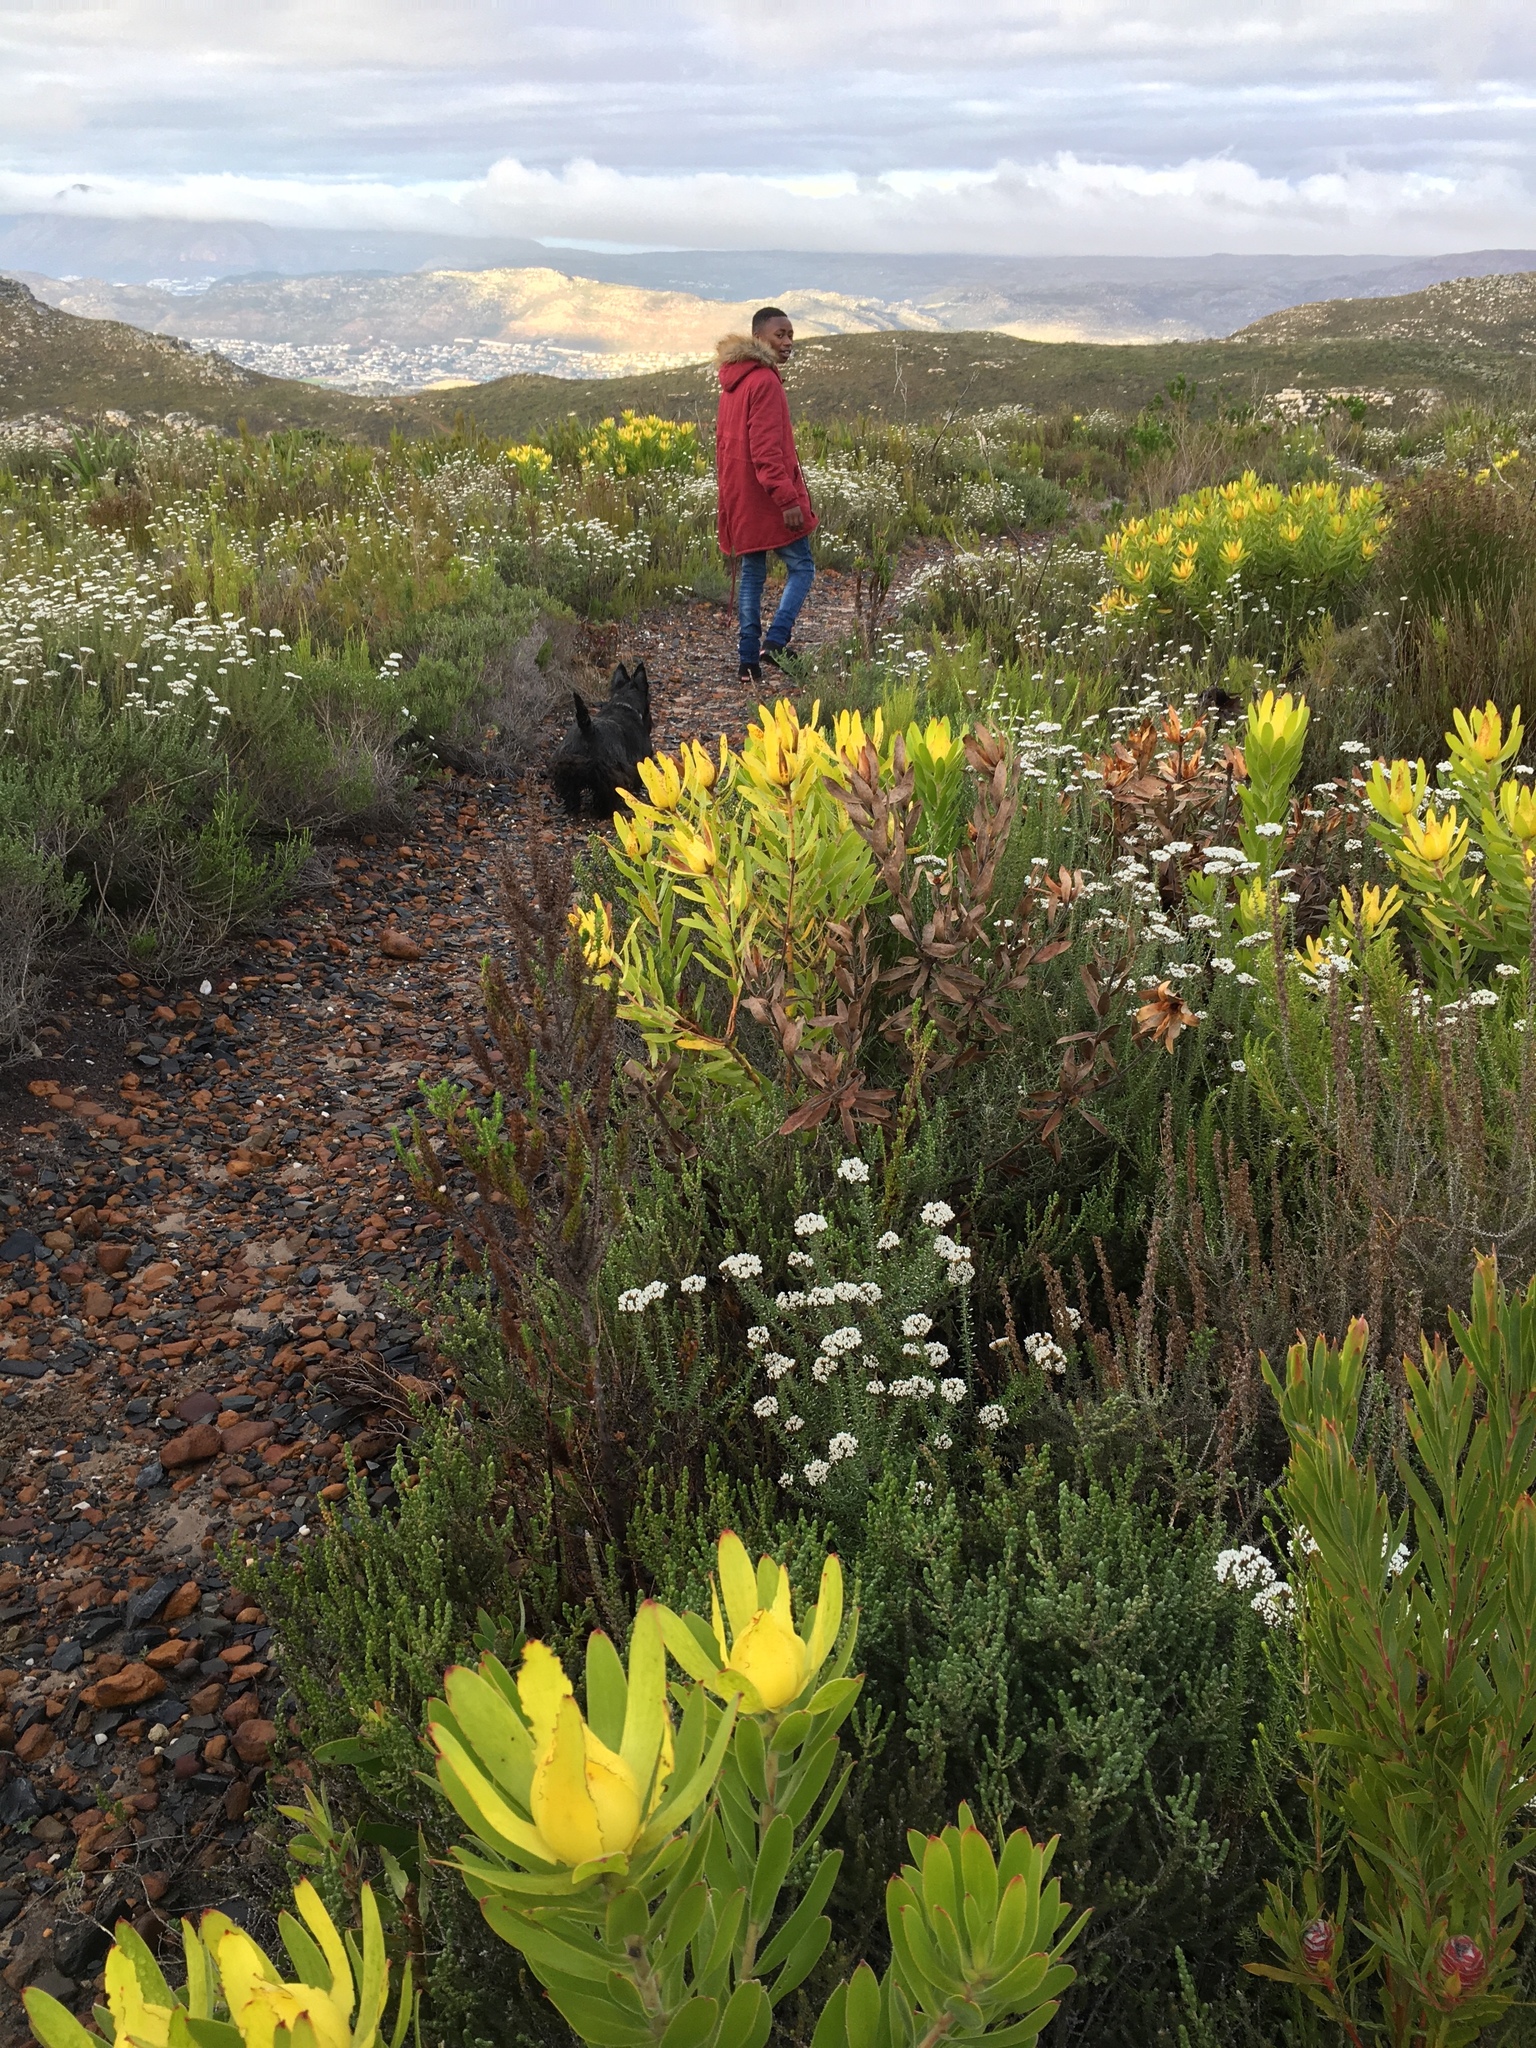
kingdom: Plantae
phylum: Tracheophyta
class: Magnoliopsida
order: Proteales
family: Proteaceae
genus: Leucadendron
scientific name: Leucadendron laureolum
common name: Golden sunshinebush
